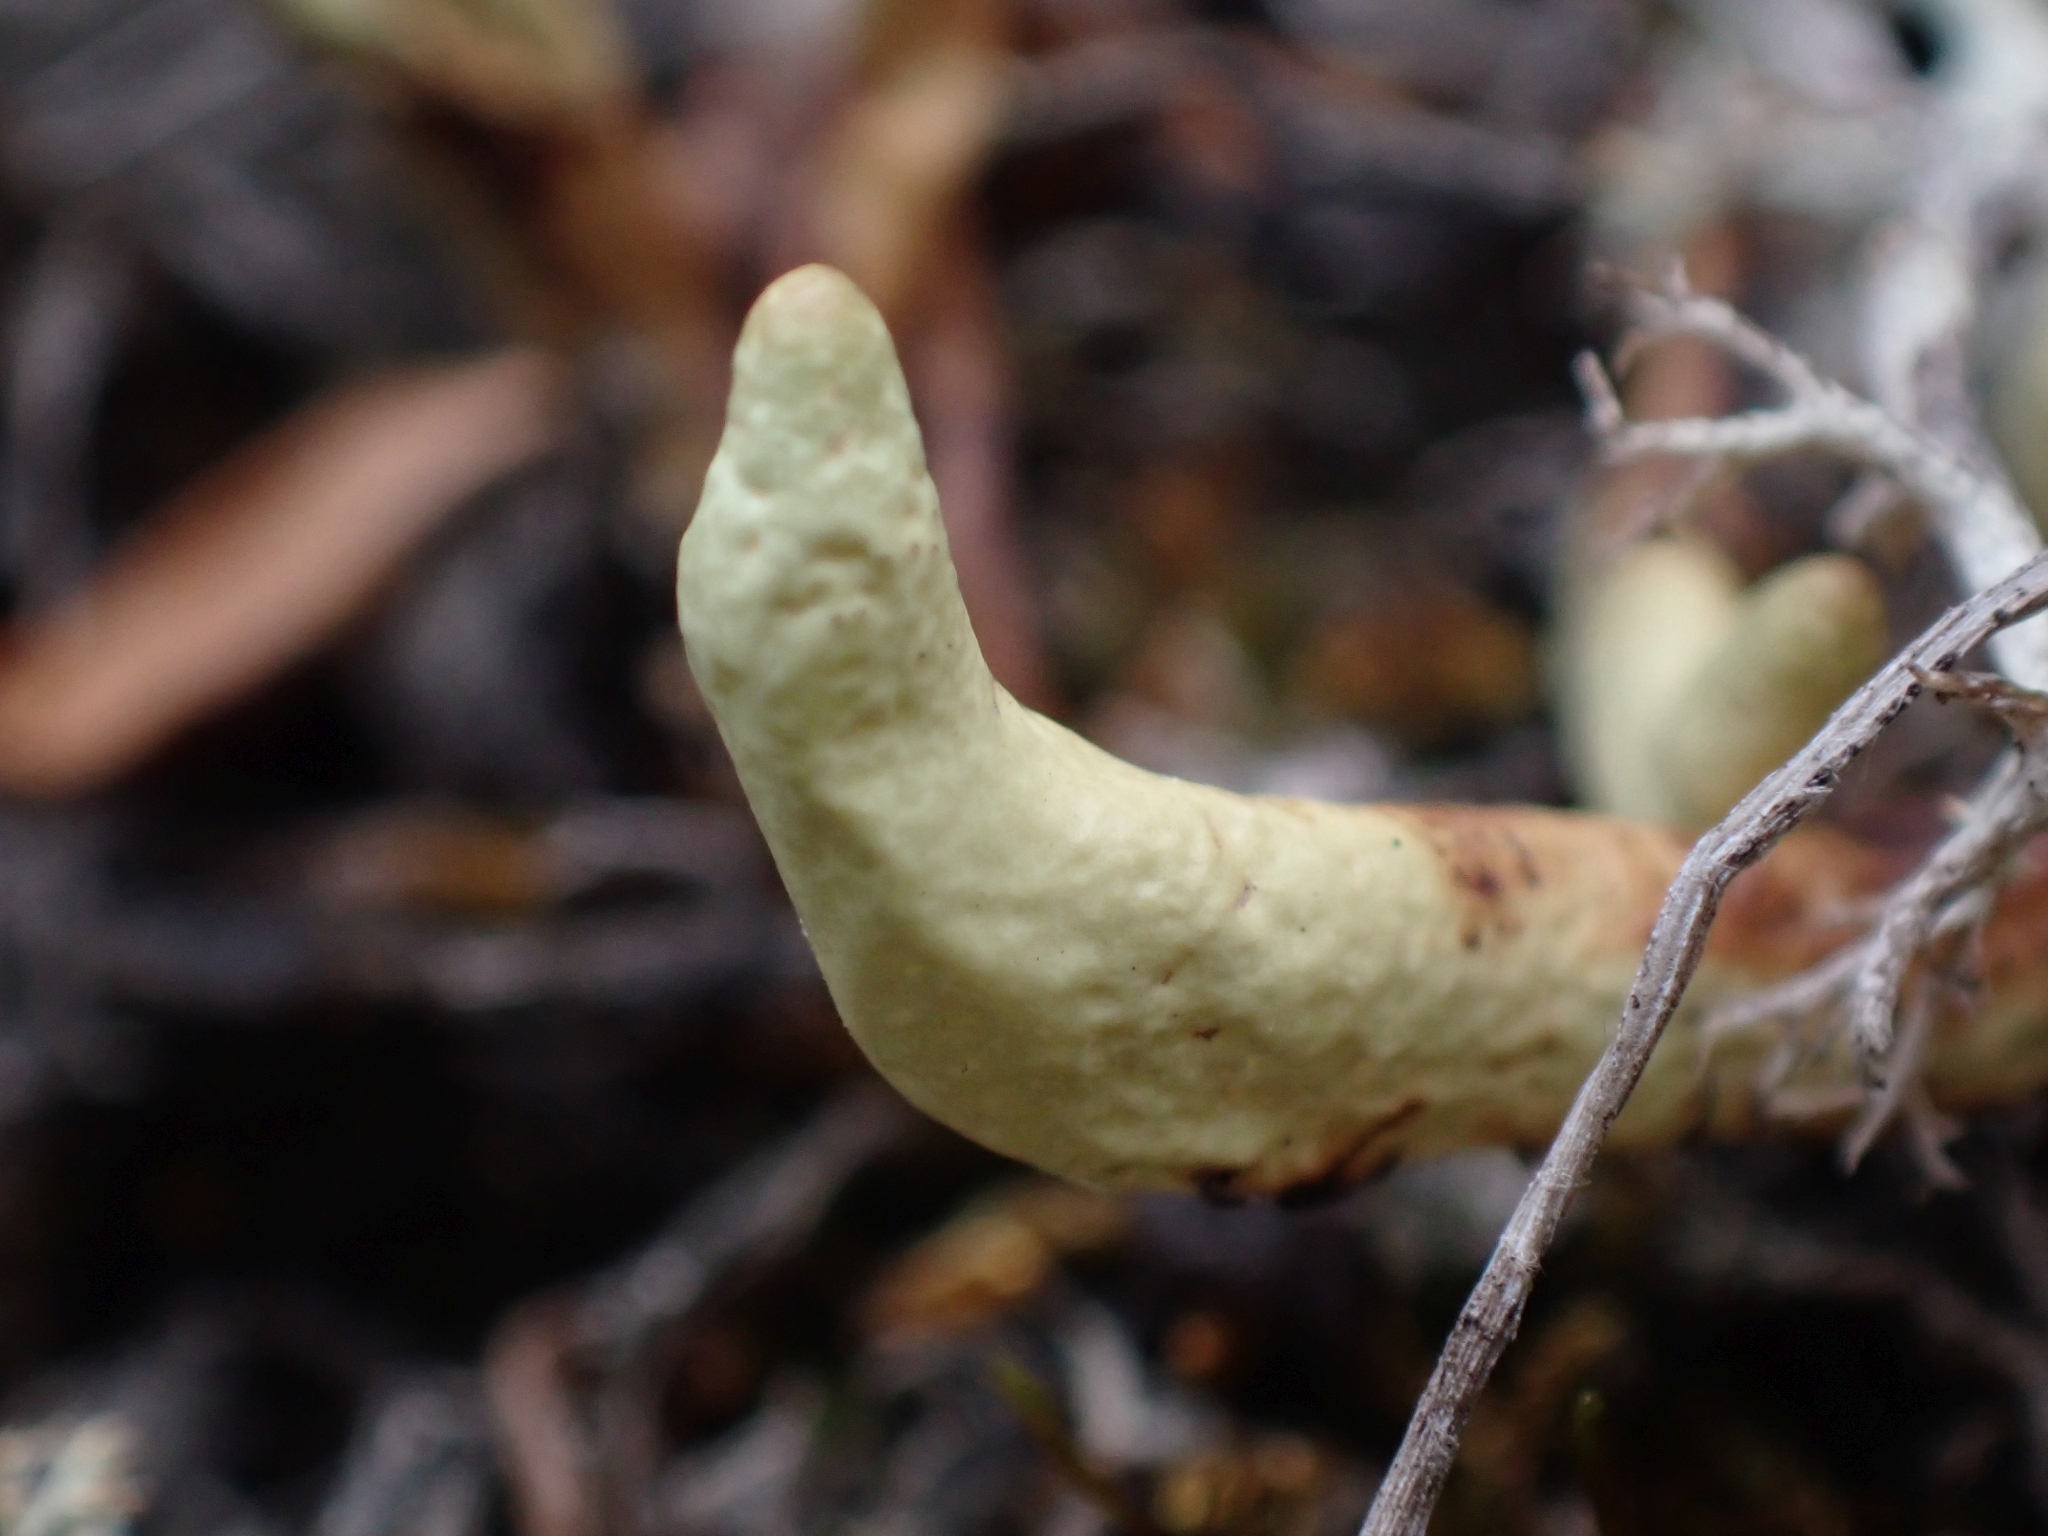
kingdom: Fungi
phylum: Ascomycota
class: Lecanoromycetes
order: Lecanorales
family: Parmeliaceae
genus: Dactylina
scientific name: Dactylina arctica
